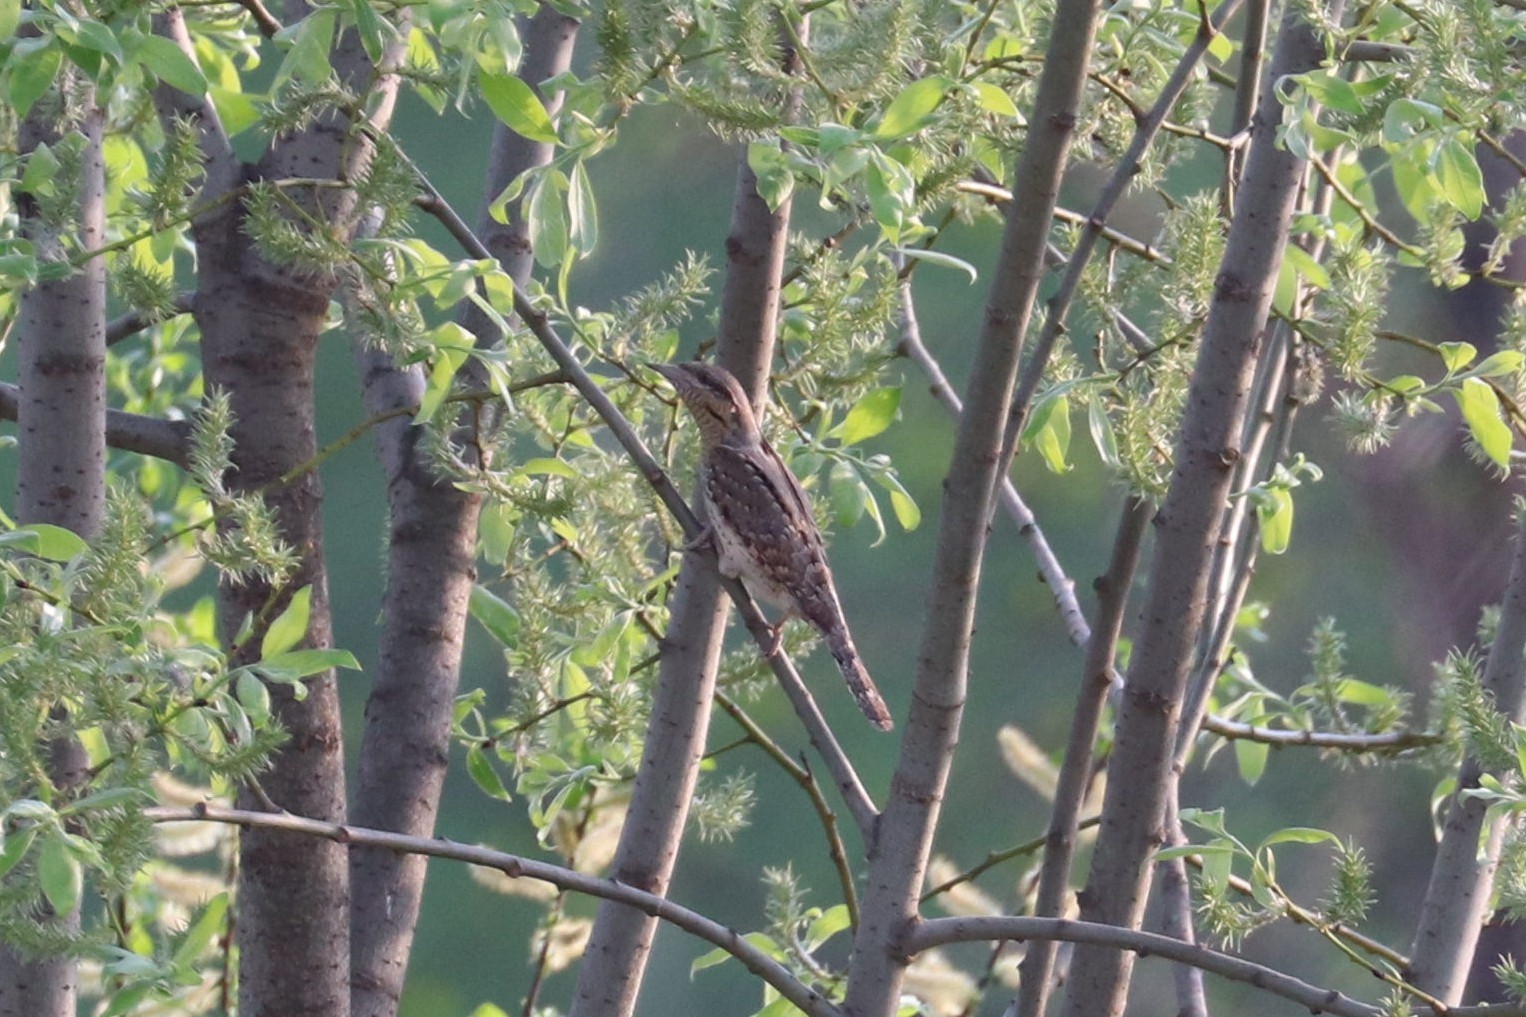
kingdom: Animalia
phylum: Chordata
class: Aves
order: Piciformes
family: Picidae
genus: Jynx
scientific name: Jynx torquilla
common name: Eurasian wryneck
